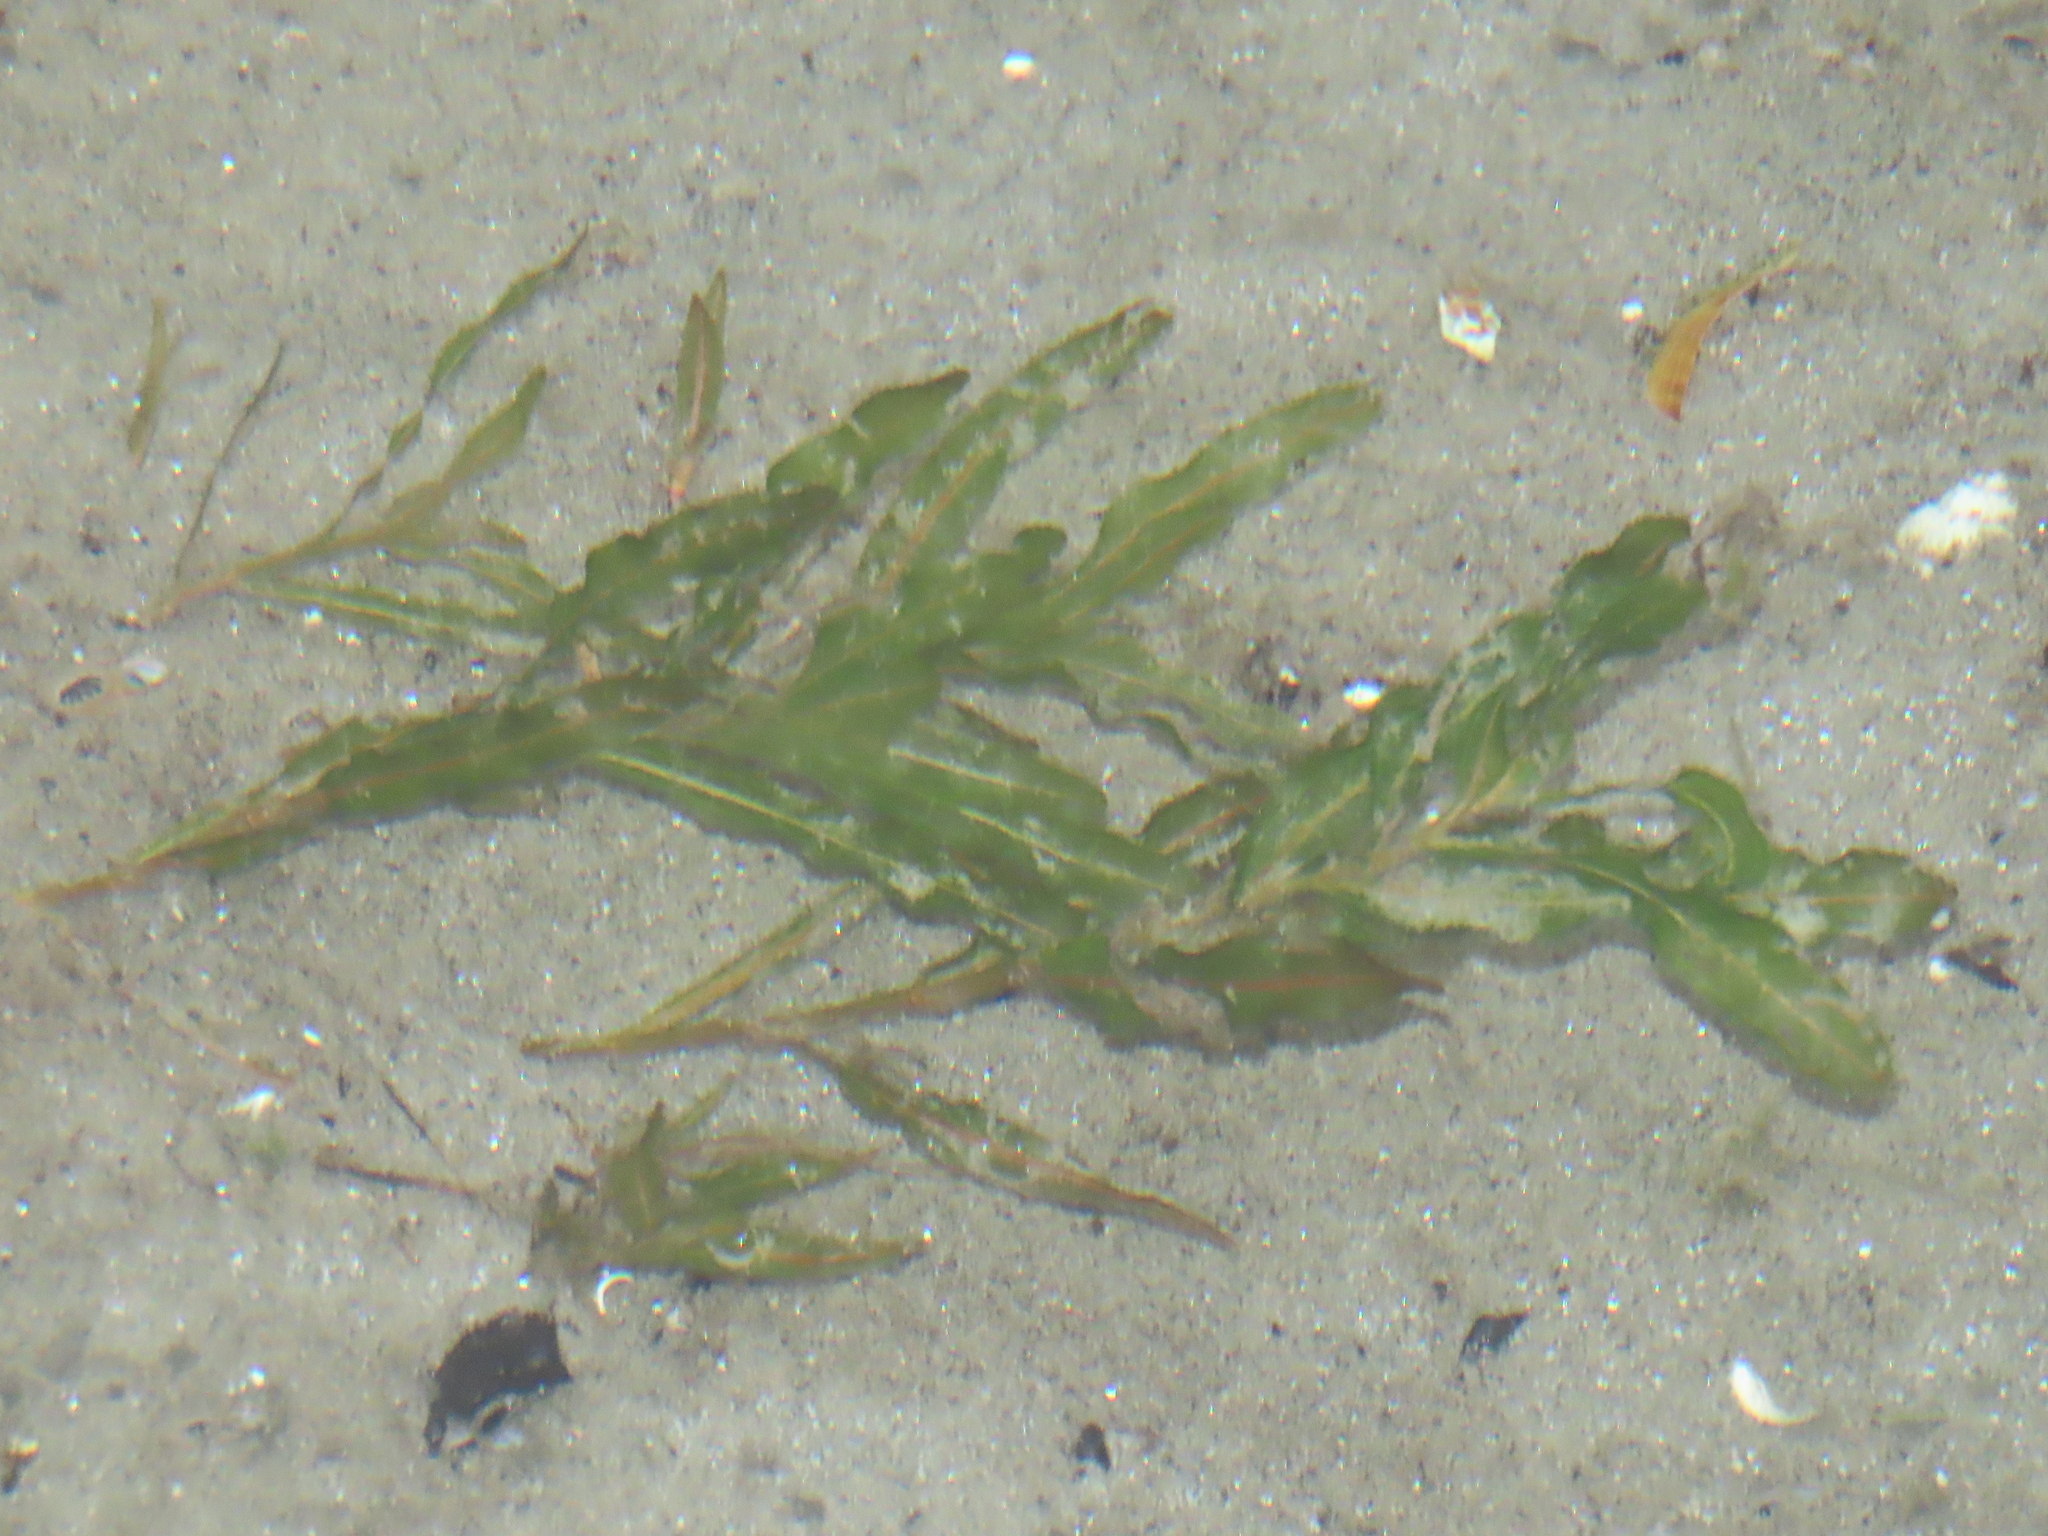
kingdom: Plantae
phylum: Tracheophyta
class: Liliopsida
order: Alismatales
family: Potamogetonaceae
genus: Potamogeton
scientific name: Potamogeton crispus
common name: Curled pondweed
